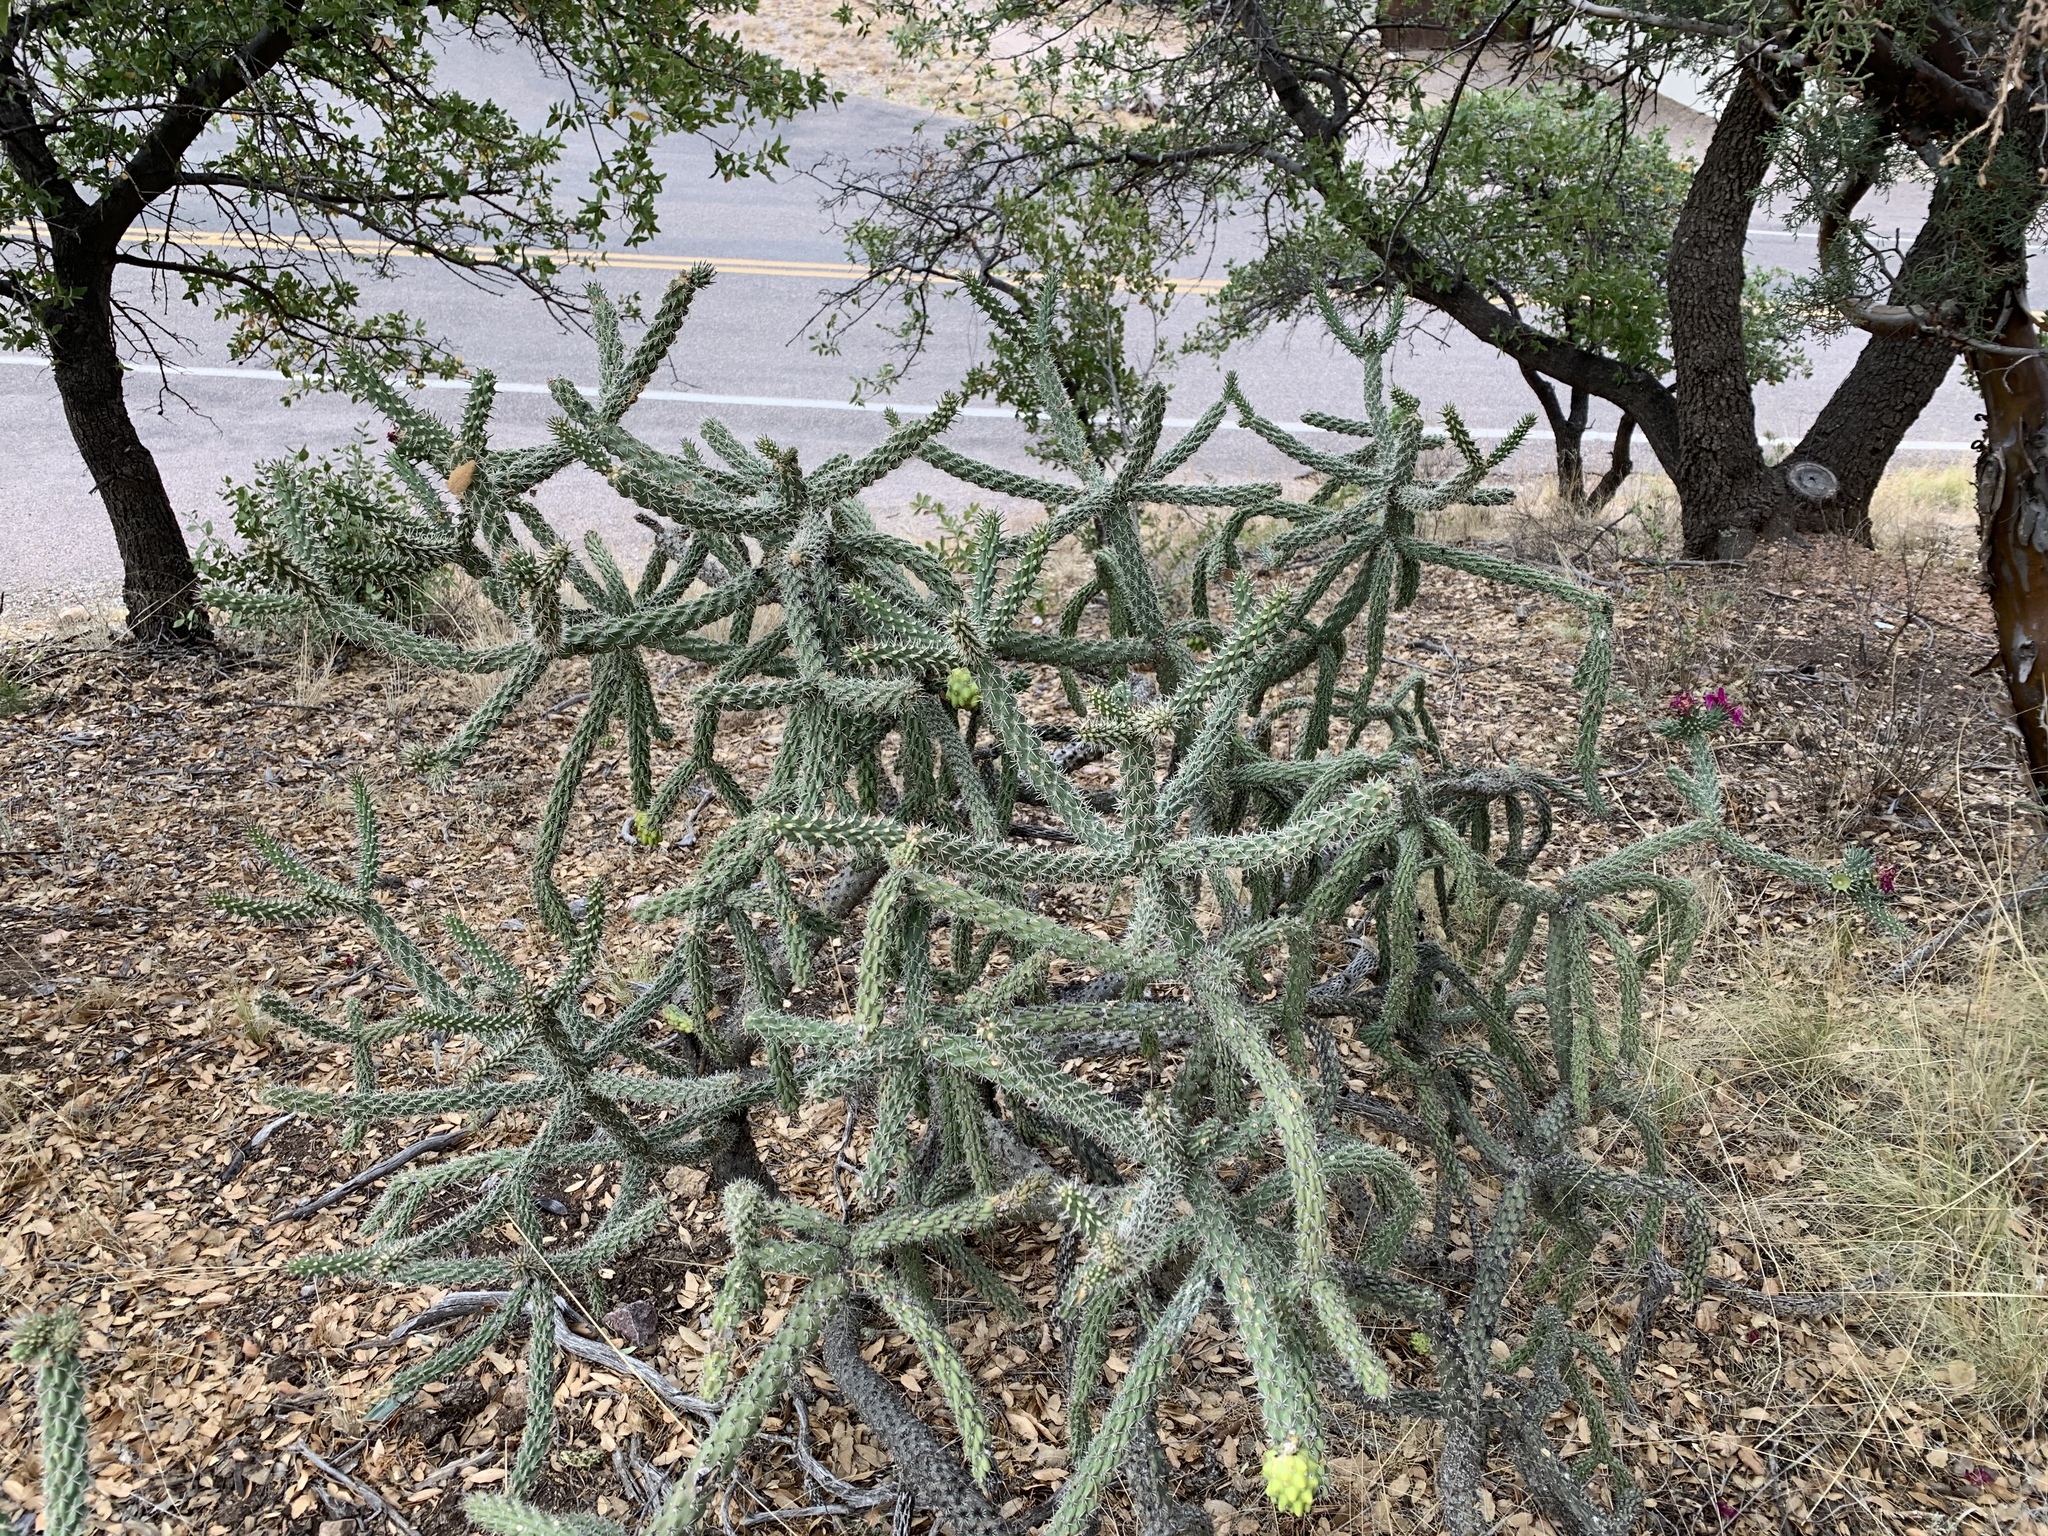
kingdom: Plantae
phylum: Tracheophyta
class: Magnoliopsida
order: Caryophyllales
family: Cactaceae
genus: Cylindropuntia
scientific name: Cylindropuntia imbricata
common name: Candelabrum cactus
